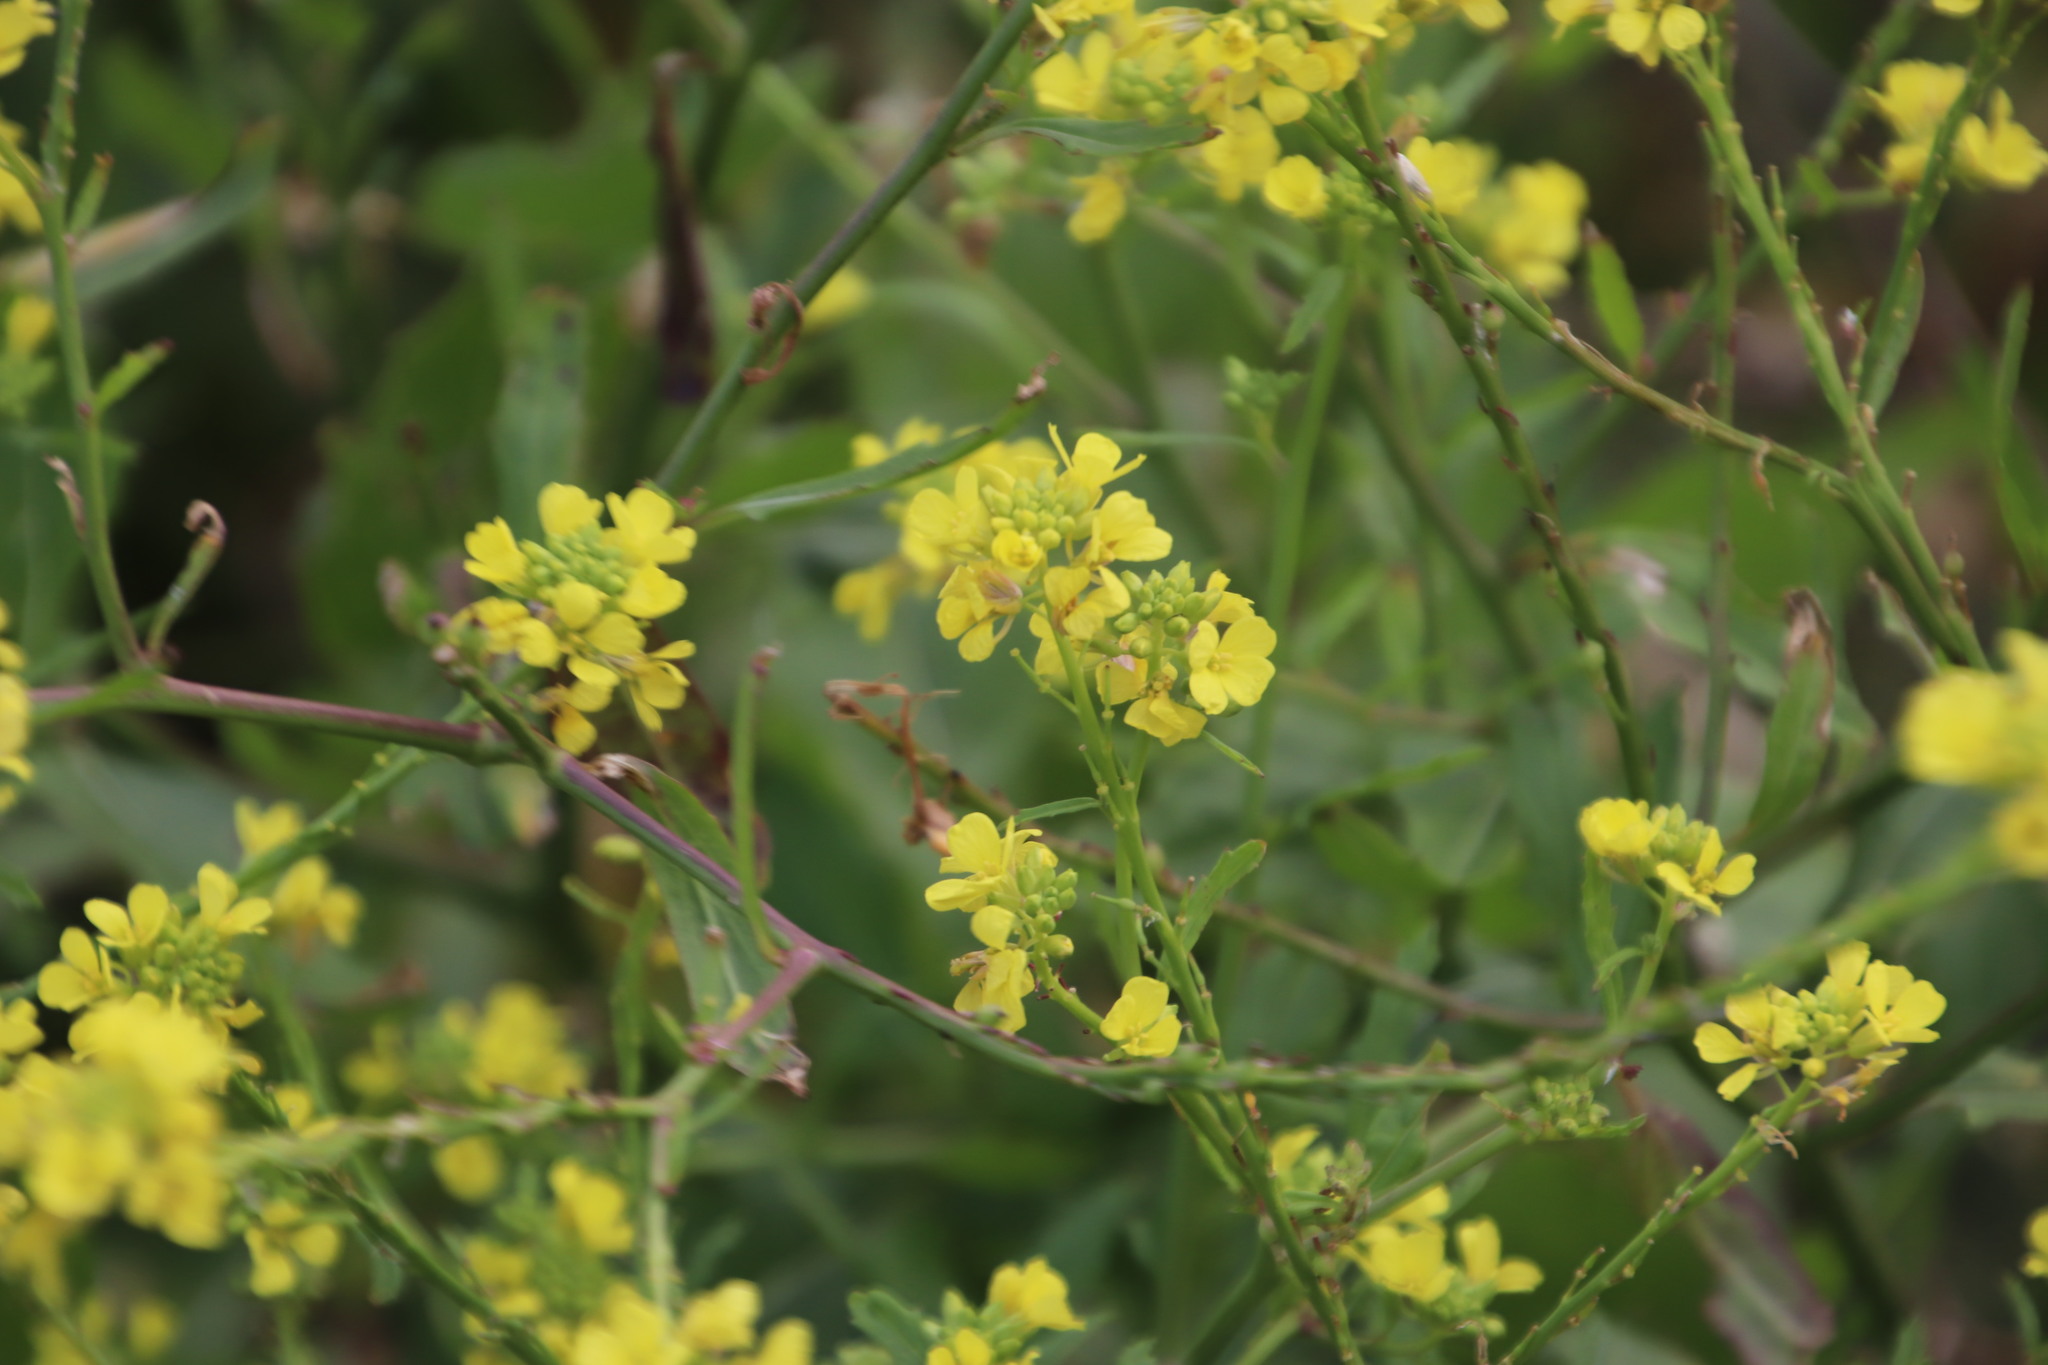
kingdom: Plantae
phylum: Tracheophyta
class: Magnoliopsida
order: Brassicales
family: Brassicaceae
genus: Rapistrum
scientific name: Rapistrum rugosum
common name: Annual bastardcabbage
